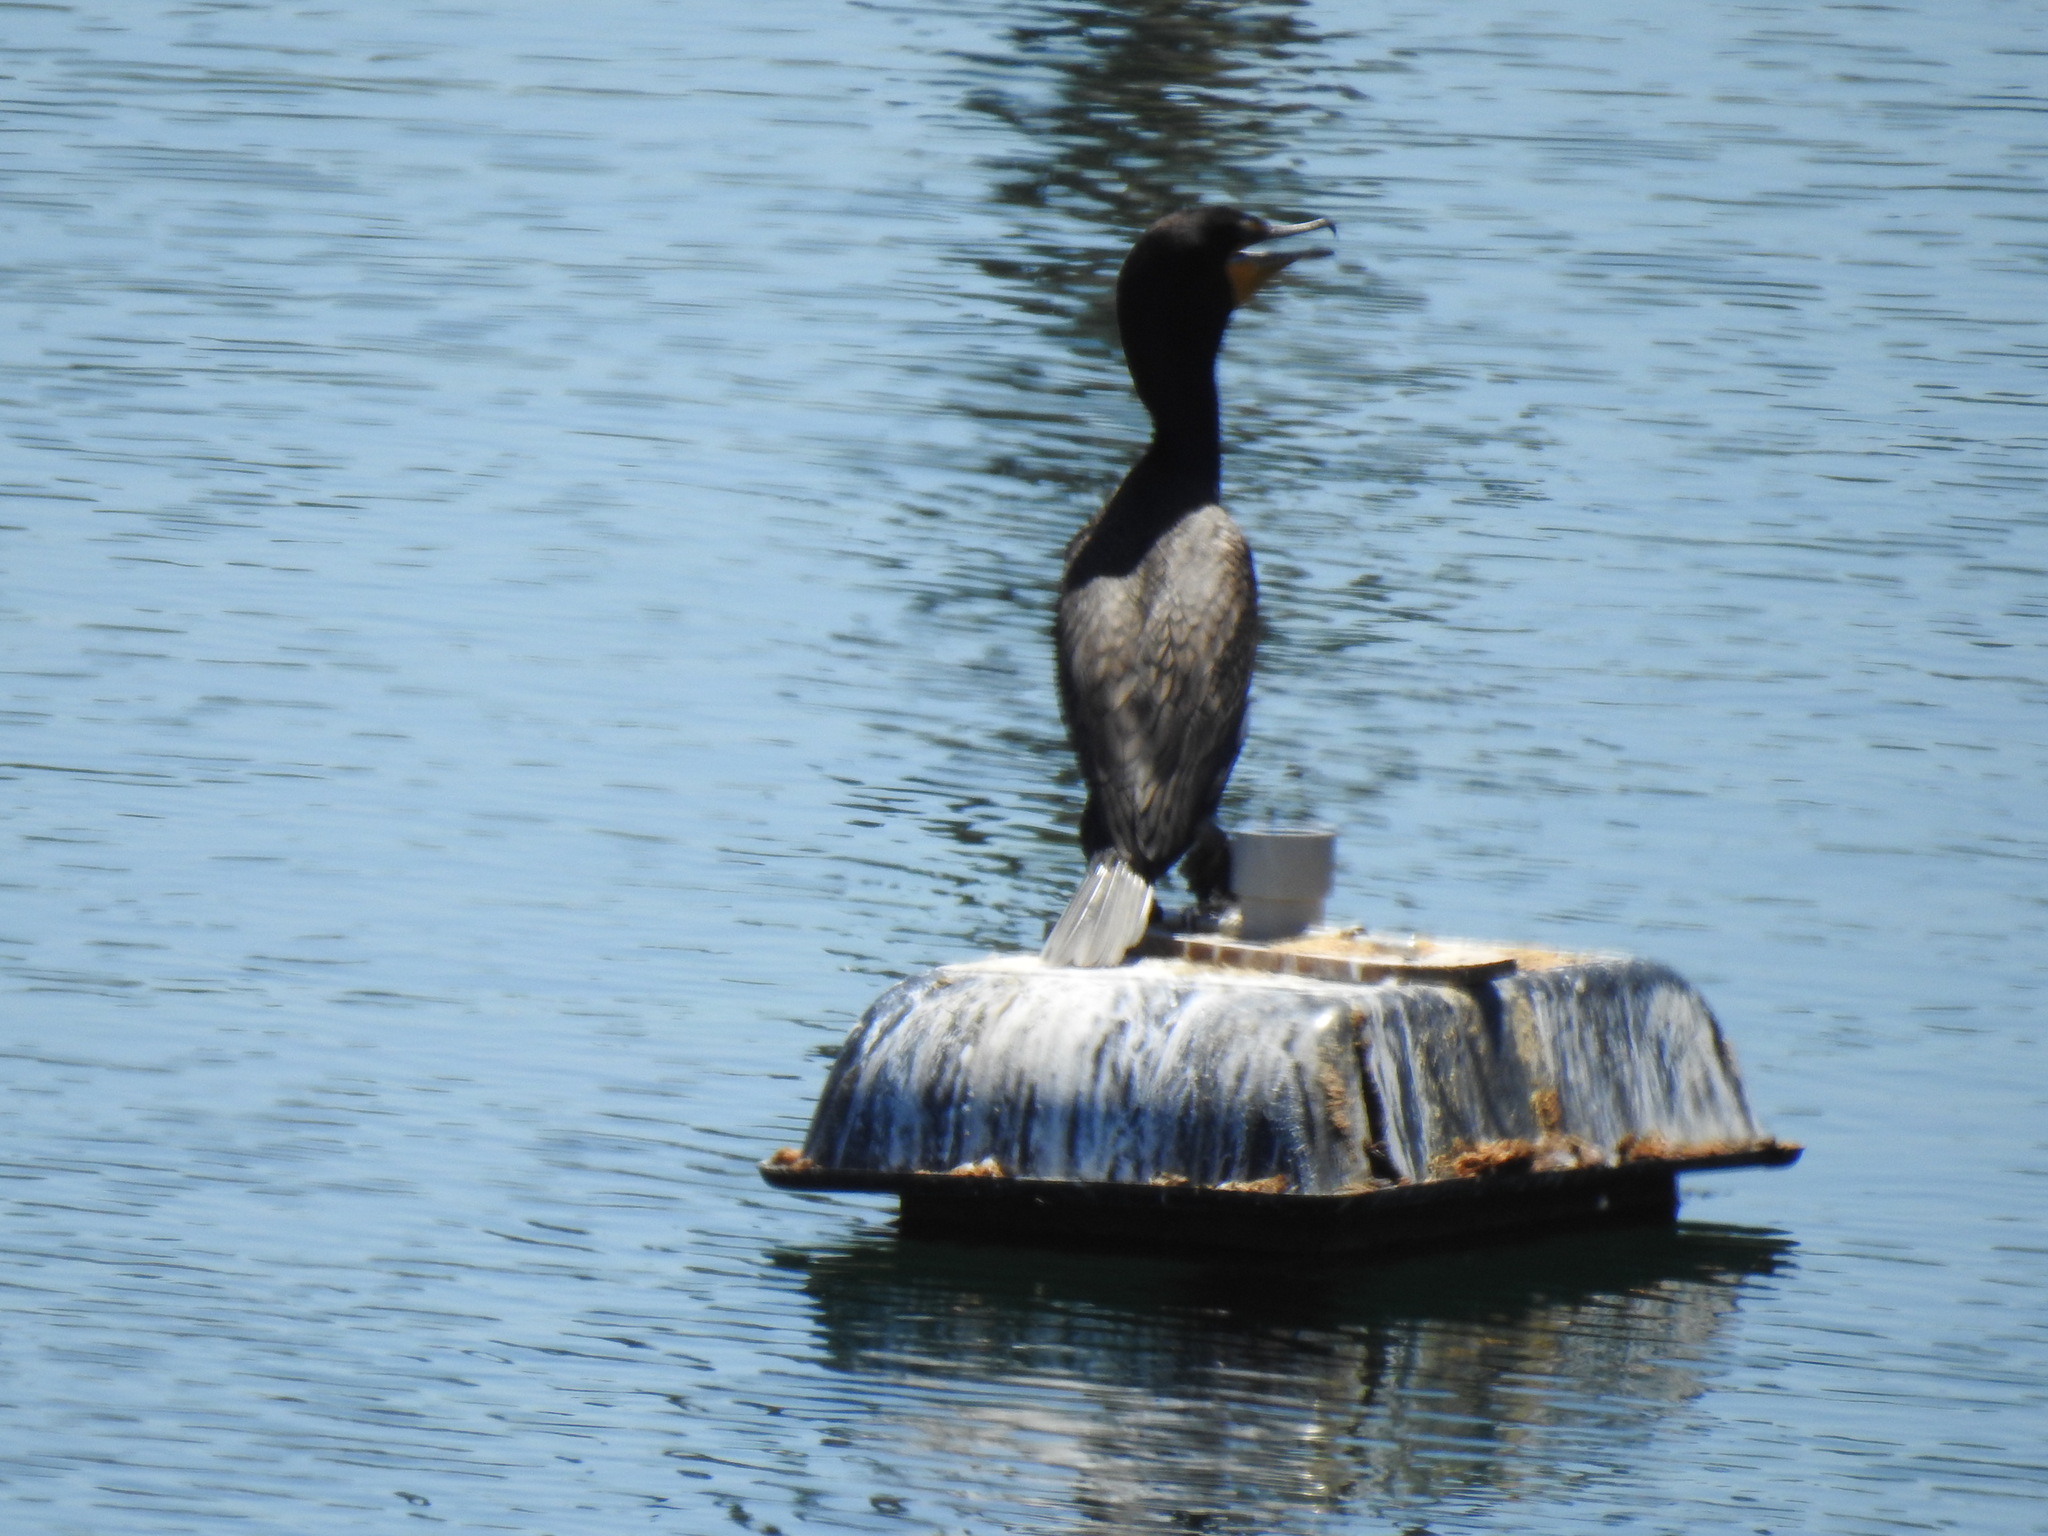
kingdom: Animalia
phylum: Chordata
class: Aves
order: Suliformes
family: Phalacrocoracidae
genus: Phalacrocorax
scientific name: Phalacrocorax auritus
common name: Double-crested cormorant
